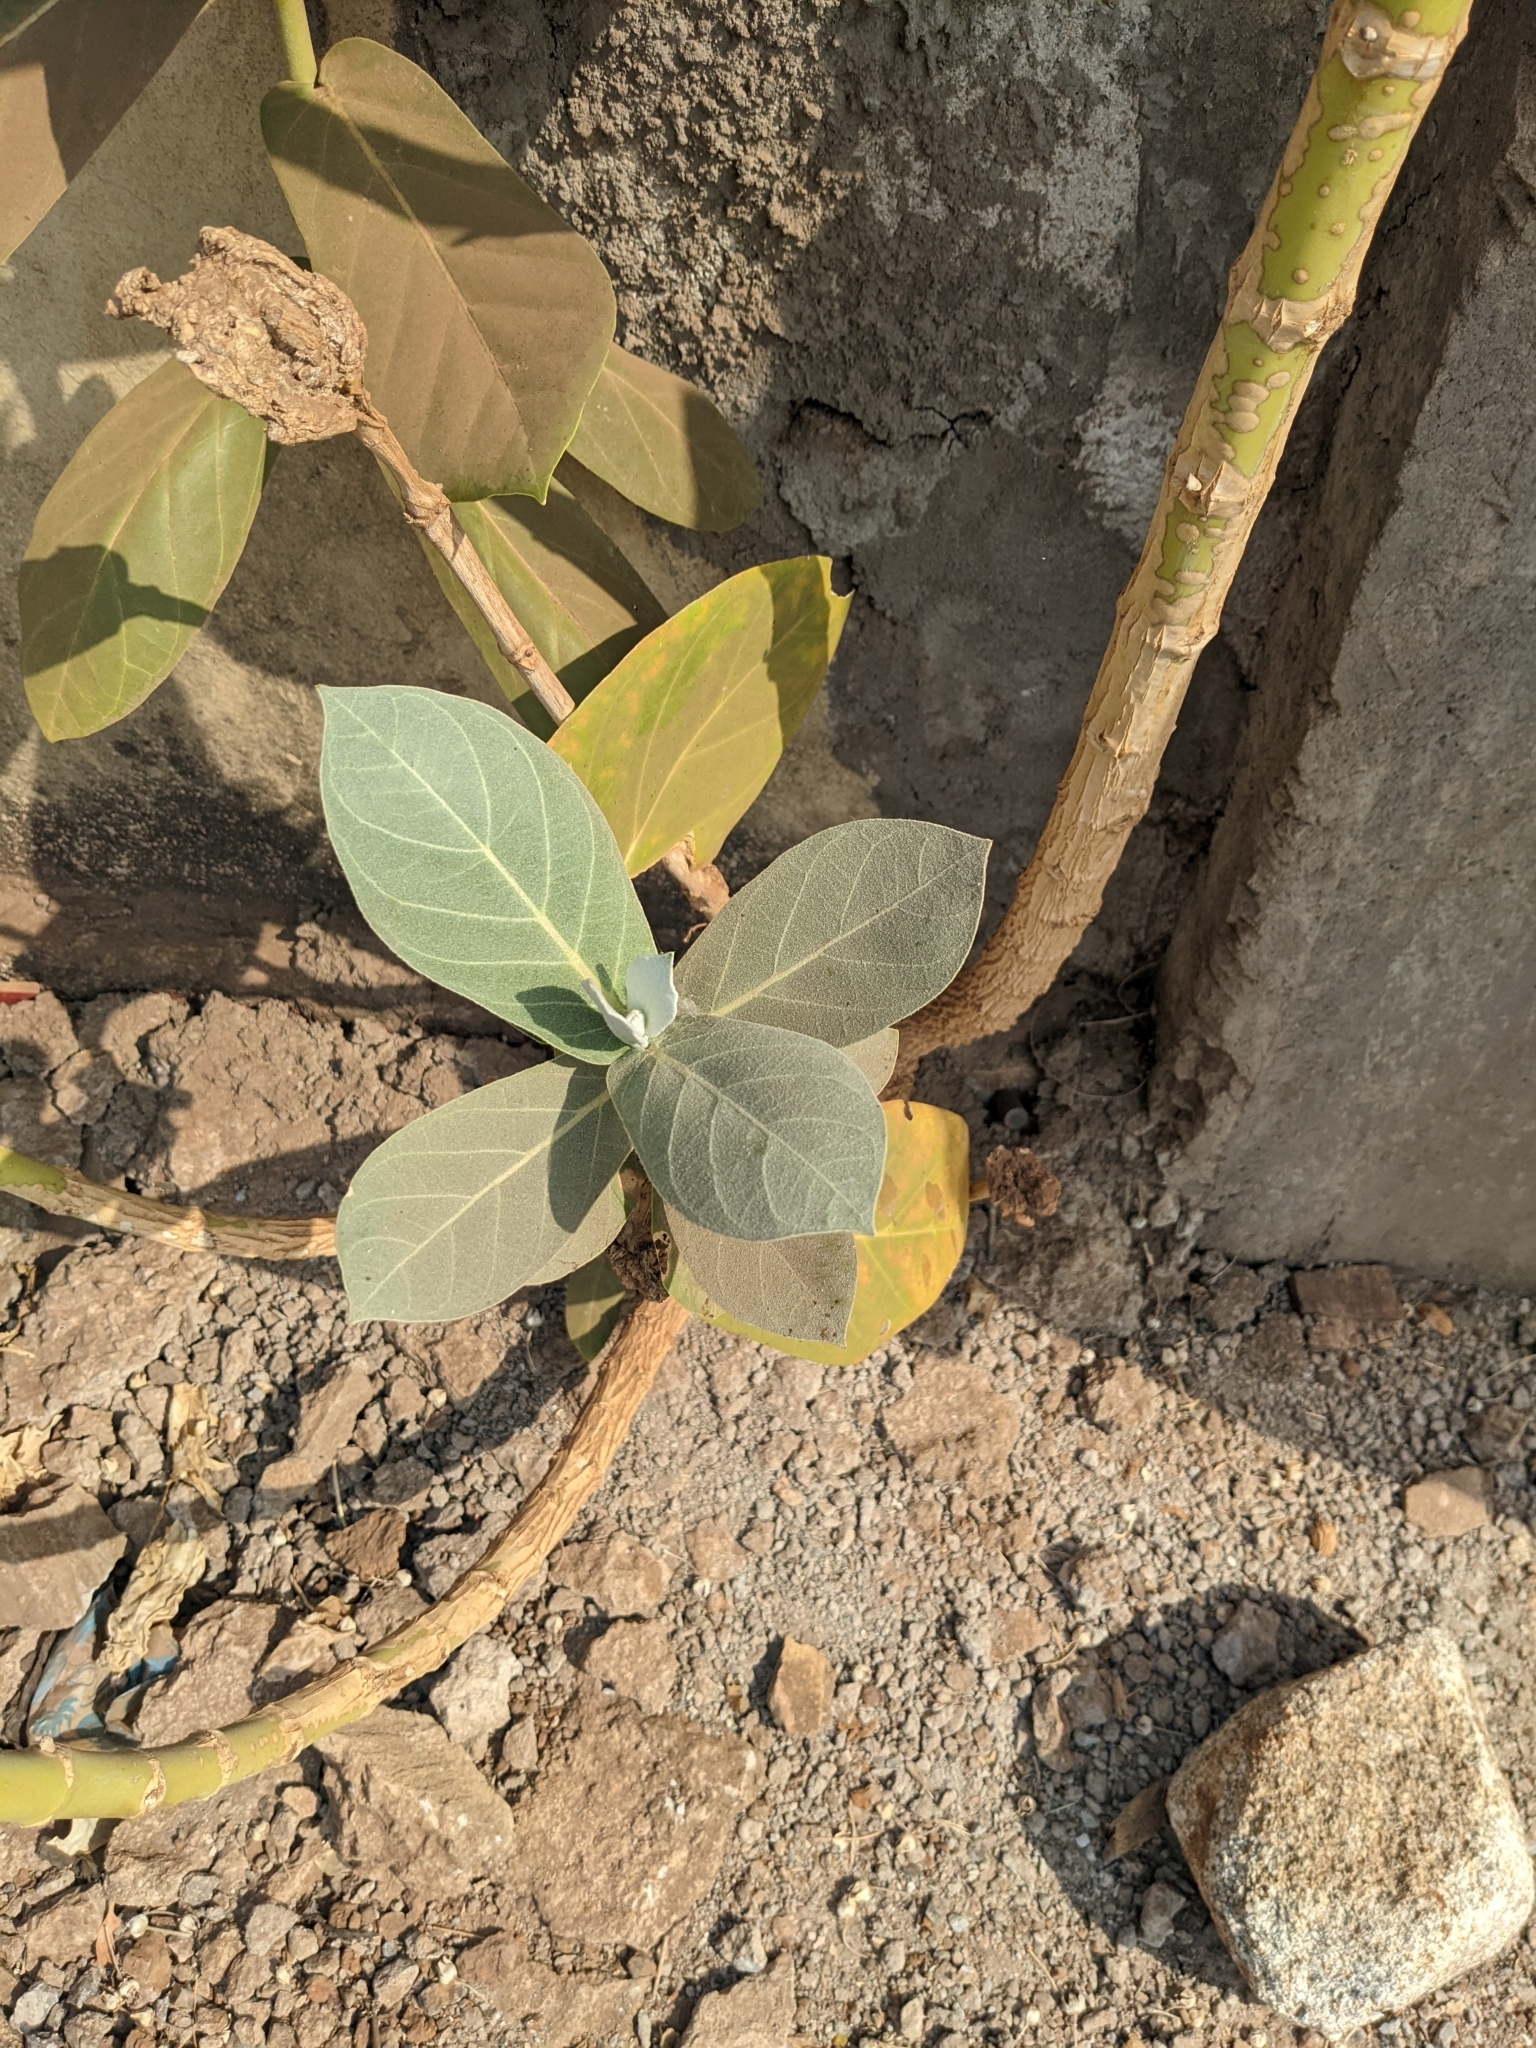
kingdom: Plantae
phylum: Tracheophyta
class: Magnoliopsida
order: Gentianales
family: Apocynaceae
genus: Calotropis
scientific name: Calotropis procera
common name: Roostertree
